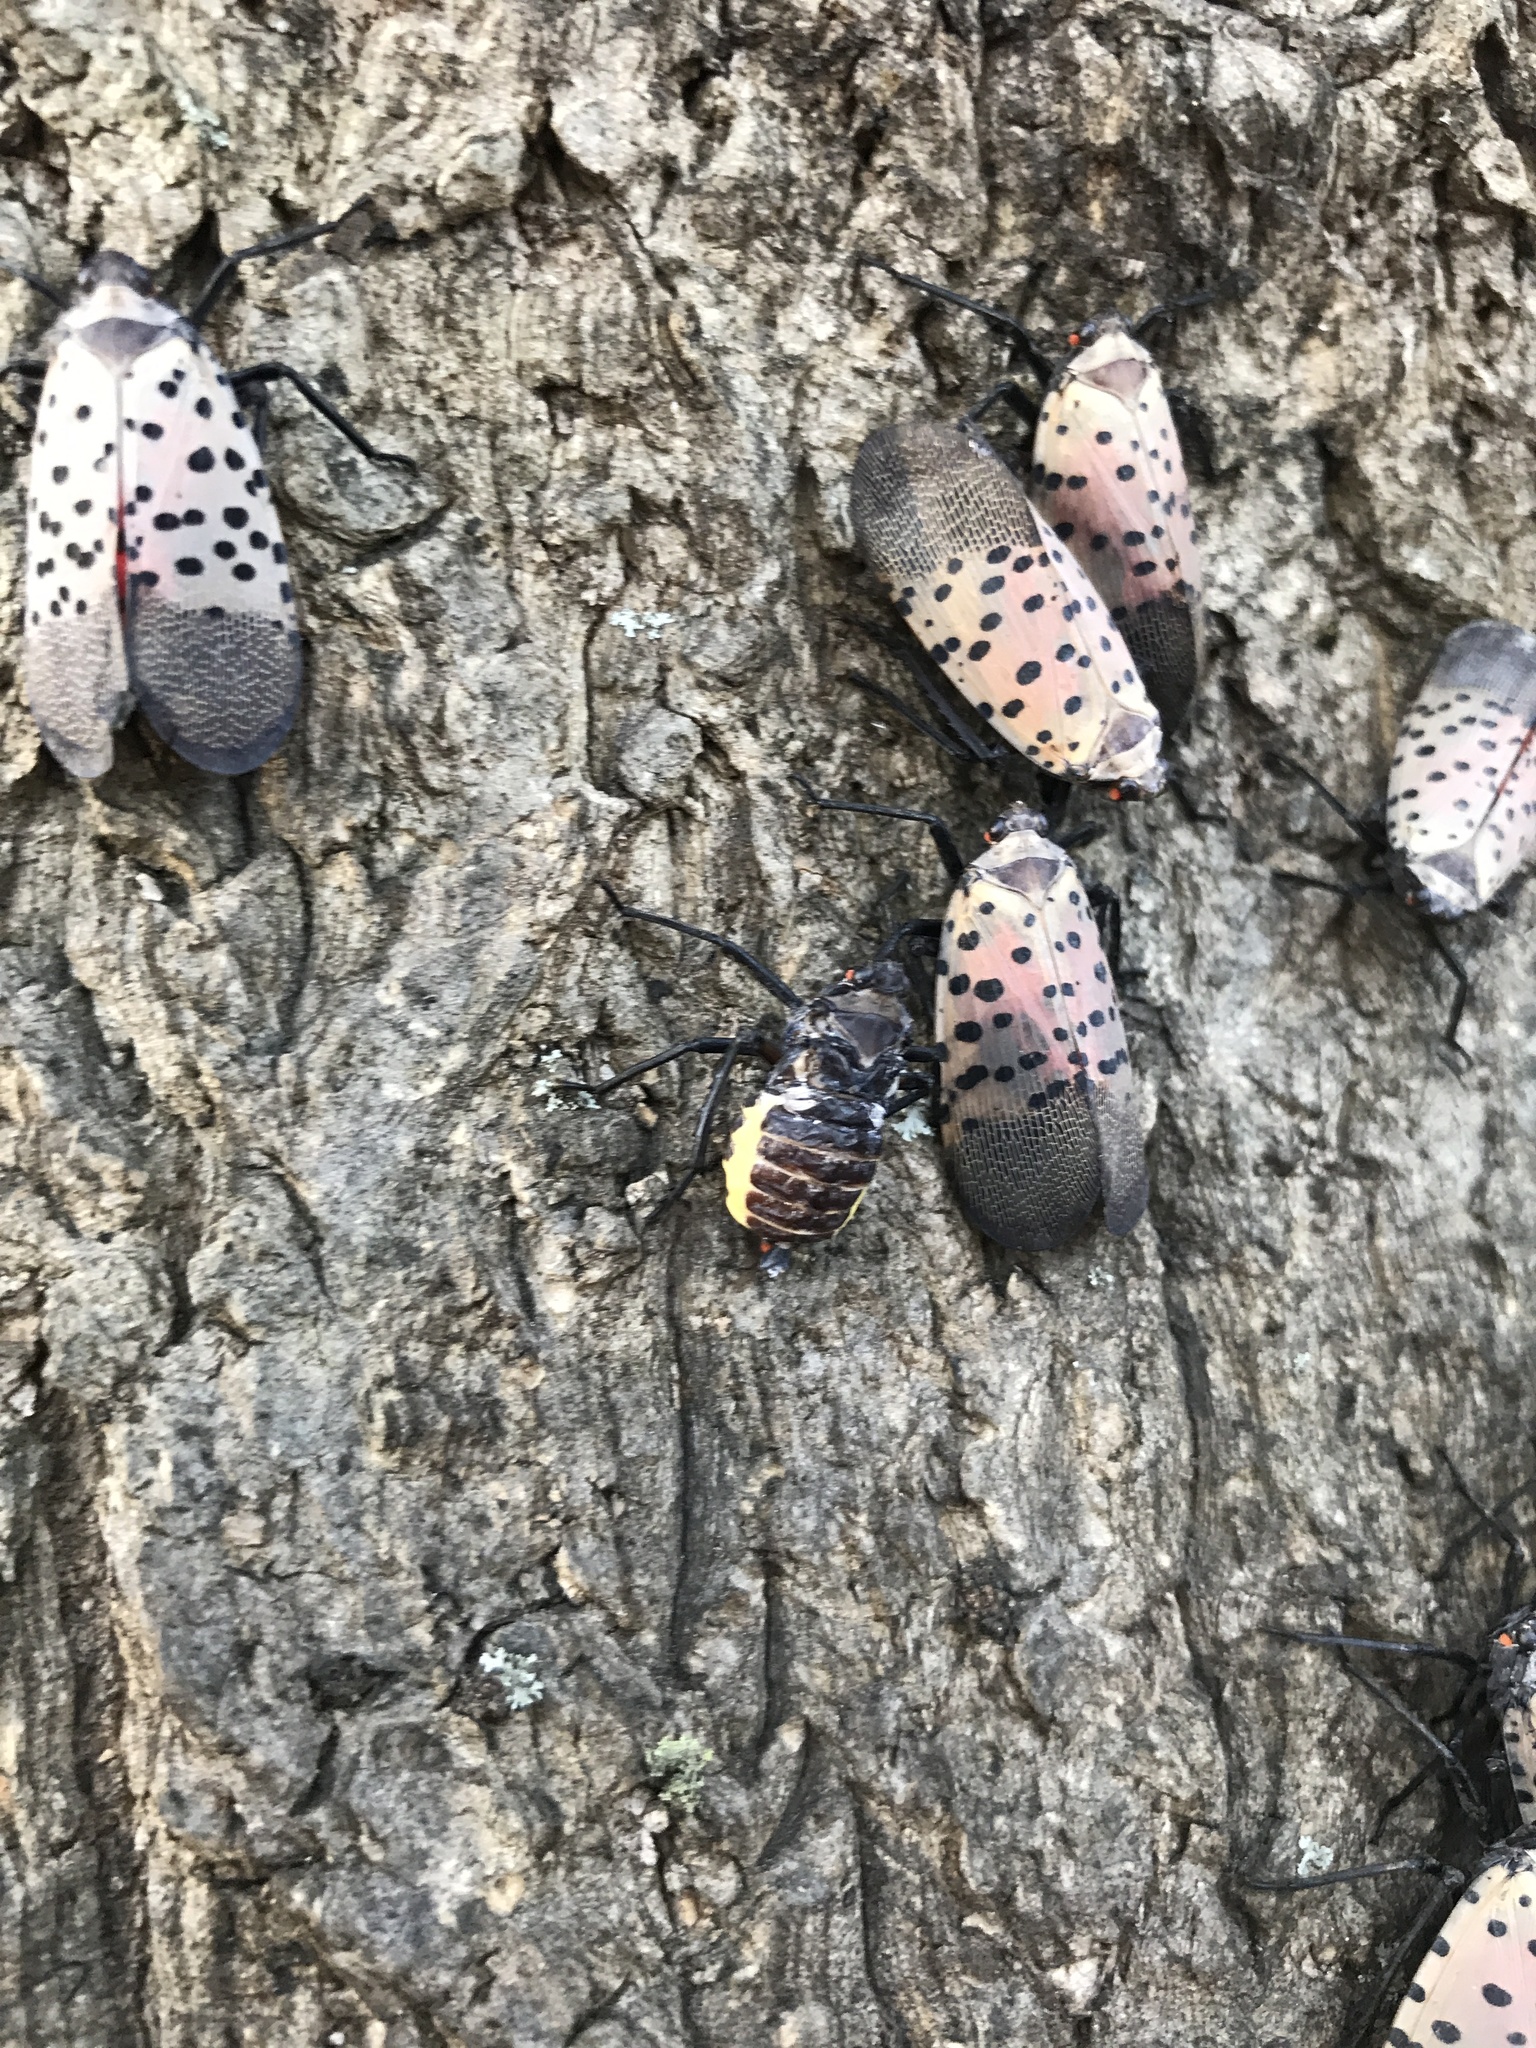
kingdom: Animalia
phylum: Arthropoda
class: Insecta
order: Hemiptera
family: Fulgoridae
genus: Lycorma
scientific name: Lycorma delicatula
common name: Spotted lanternfly
